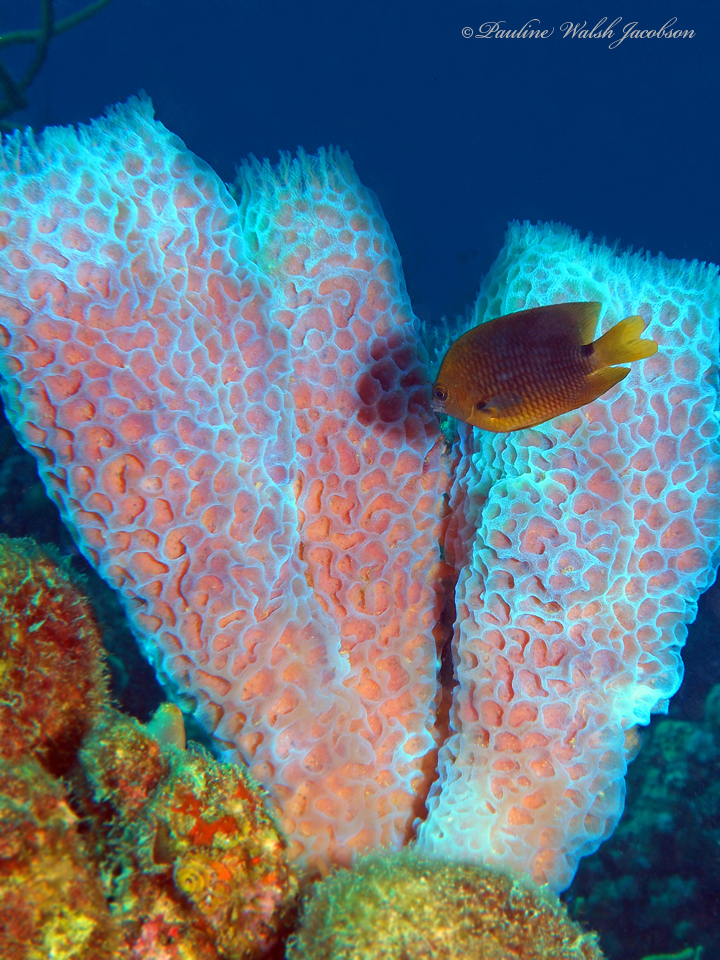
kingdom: Animalia
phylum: Porifera
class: Demospongiae
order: Haplosclerida
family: Callyspongiidae
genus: Callyspongia
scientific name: Callyspongia plicifera
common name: Azure vase sponge
